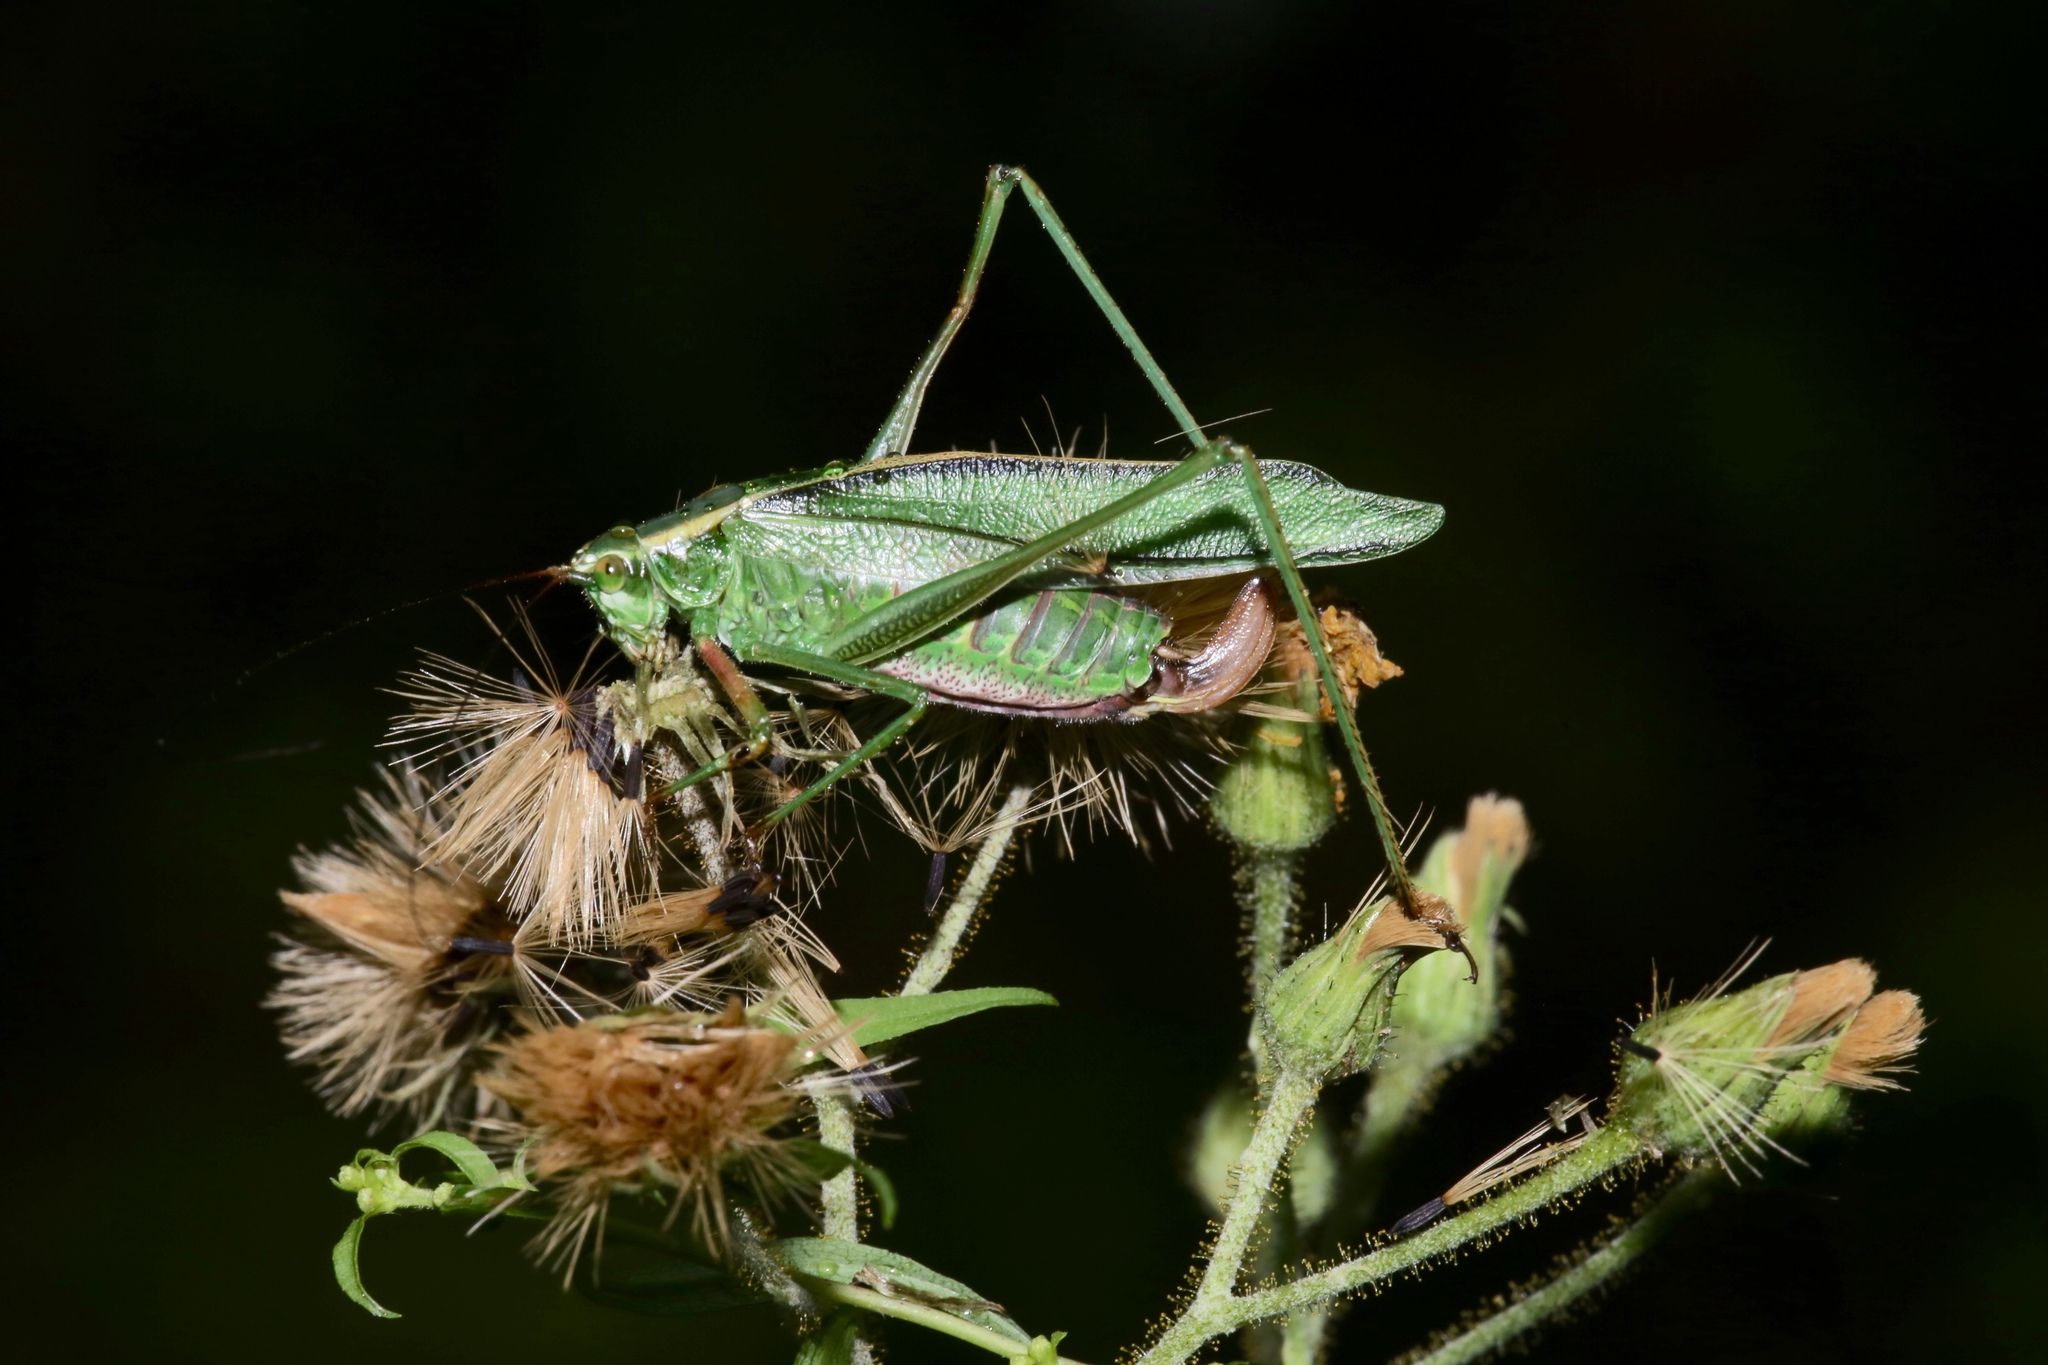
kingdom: Animalia
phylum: Arthropoda
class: Insecta
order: Orthoptera
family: Tettigoniidae
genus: Scudderia
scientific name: Scudderia fasciata
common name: Treetop bush katydid
